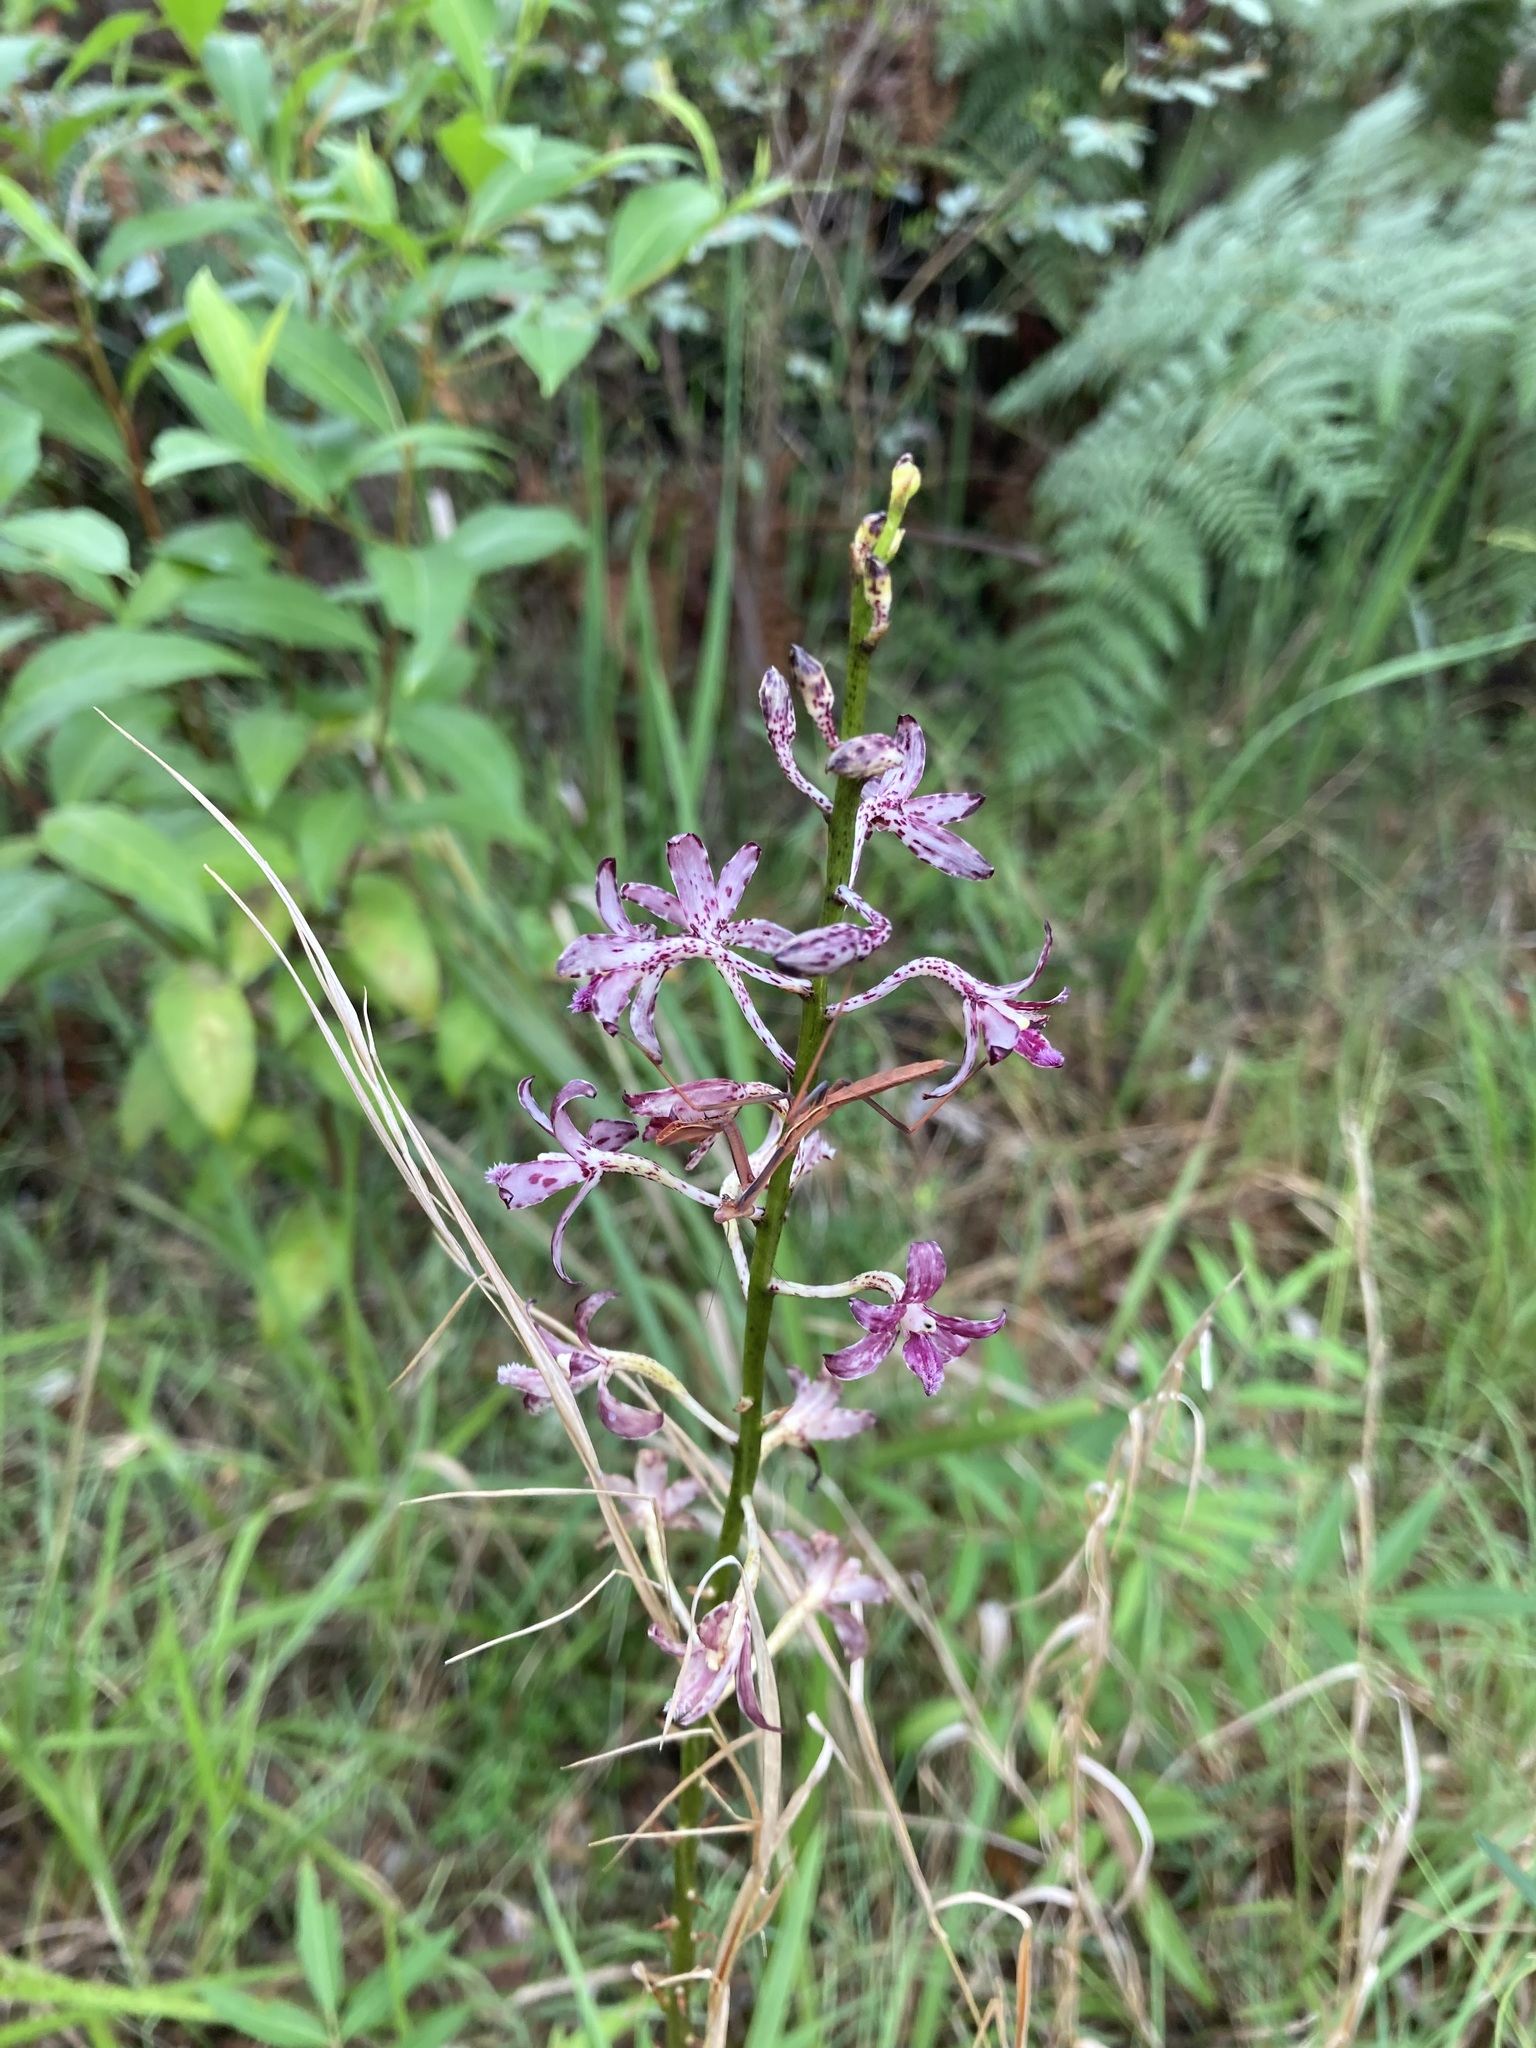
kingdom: Plantae
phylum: Tracheophyta
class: Liliopsida
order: Asparagales
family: Orchidaceae
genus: Dipodium
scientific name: Dipodium variegatum
